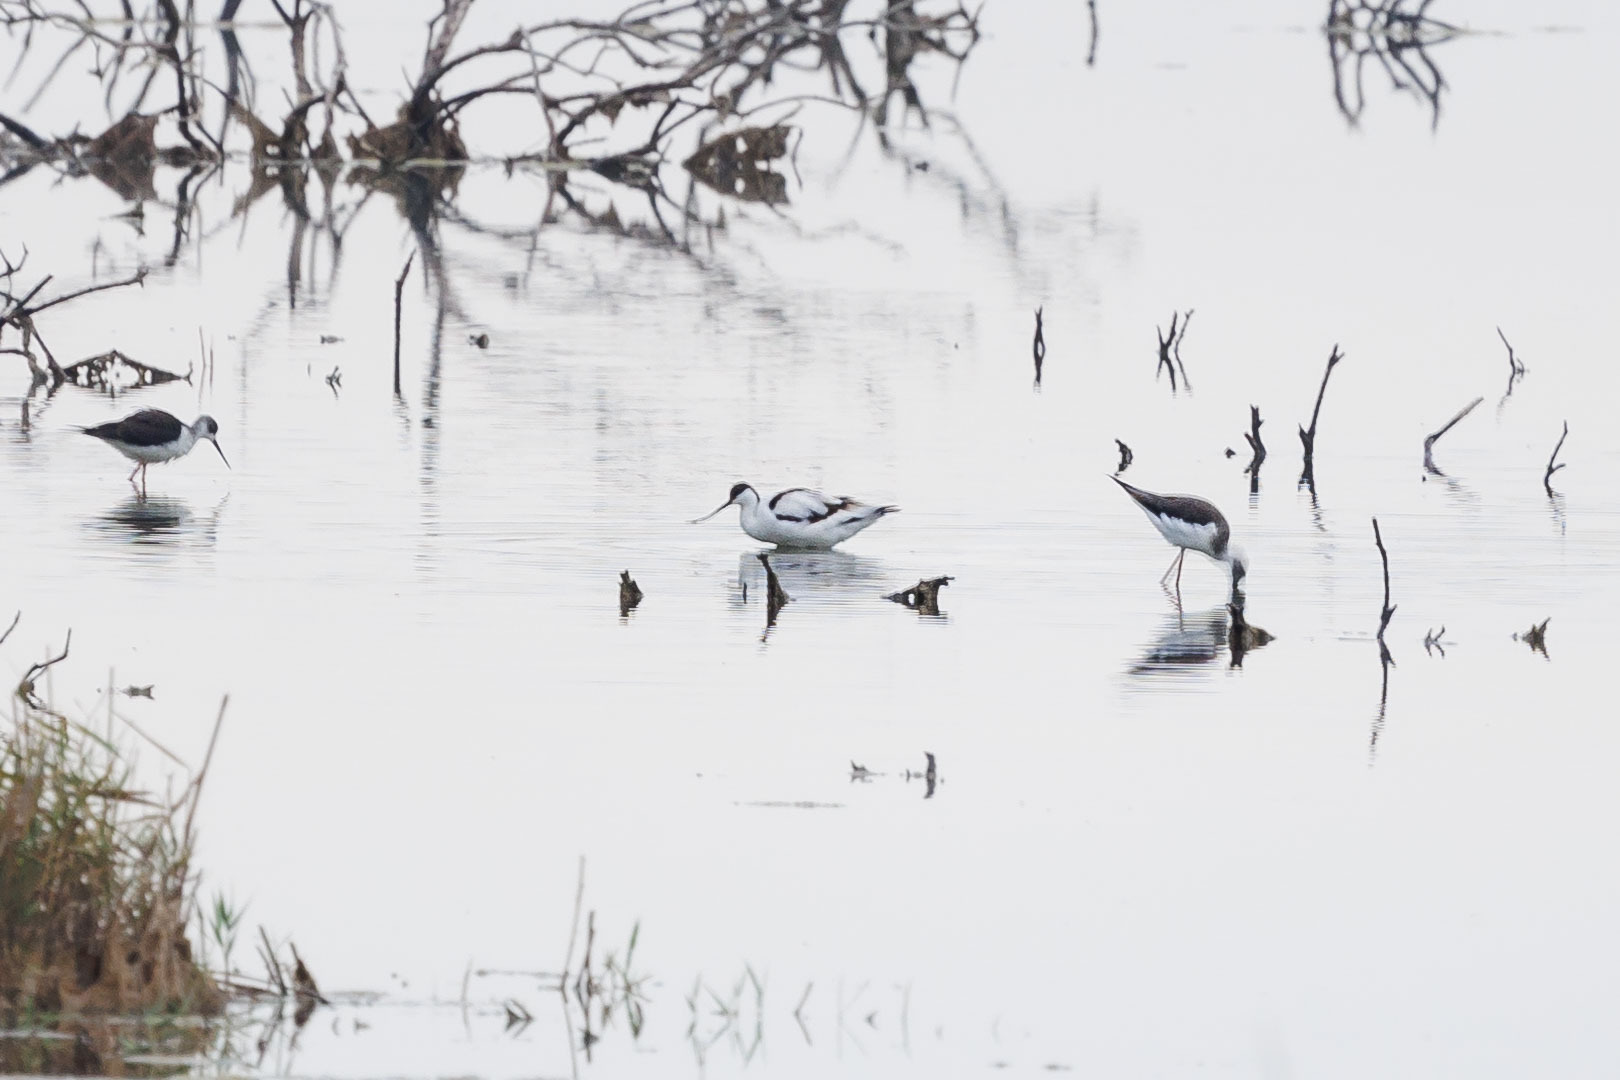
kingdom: Animalia
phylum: Chordata
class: Aves
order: Charadriiformes
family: Recurvirostridae
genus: Recurvirostra
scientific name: Recurvirostra avosetta
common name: Pied avocet
